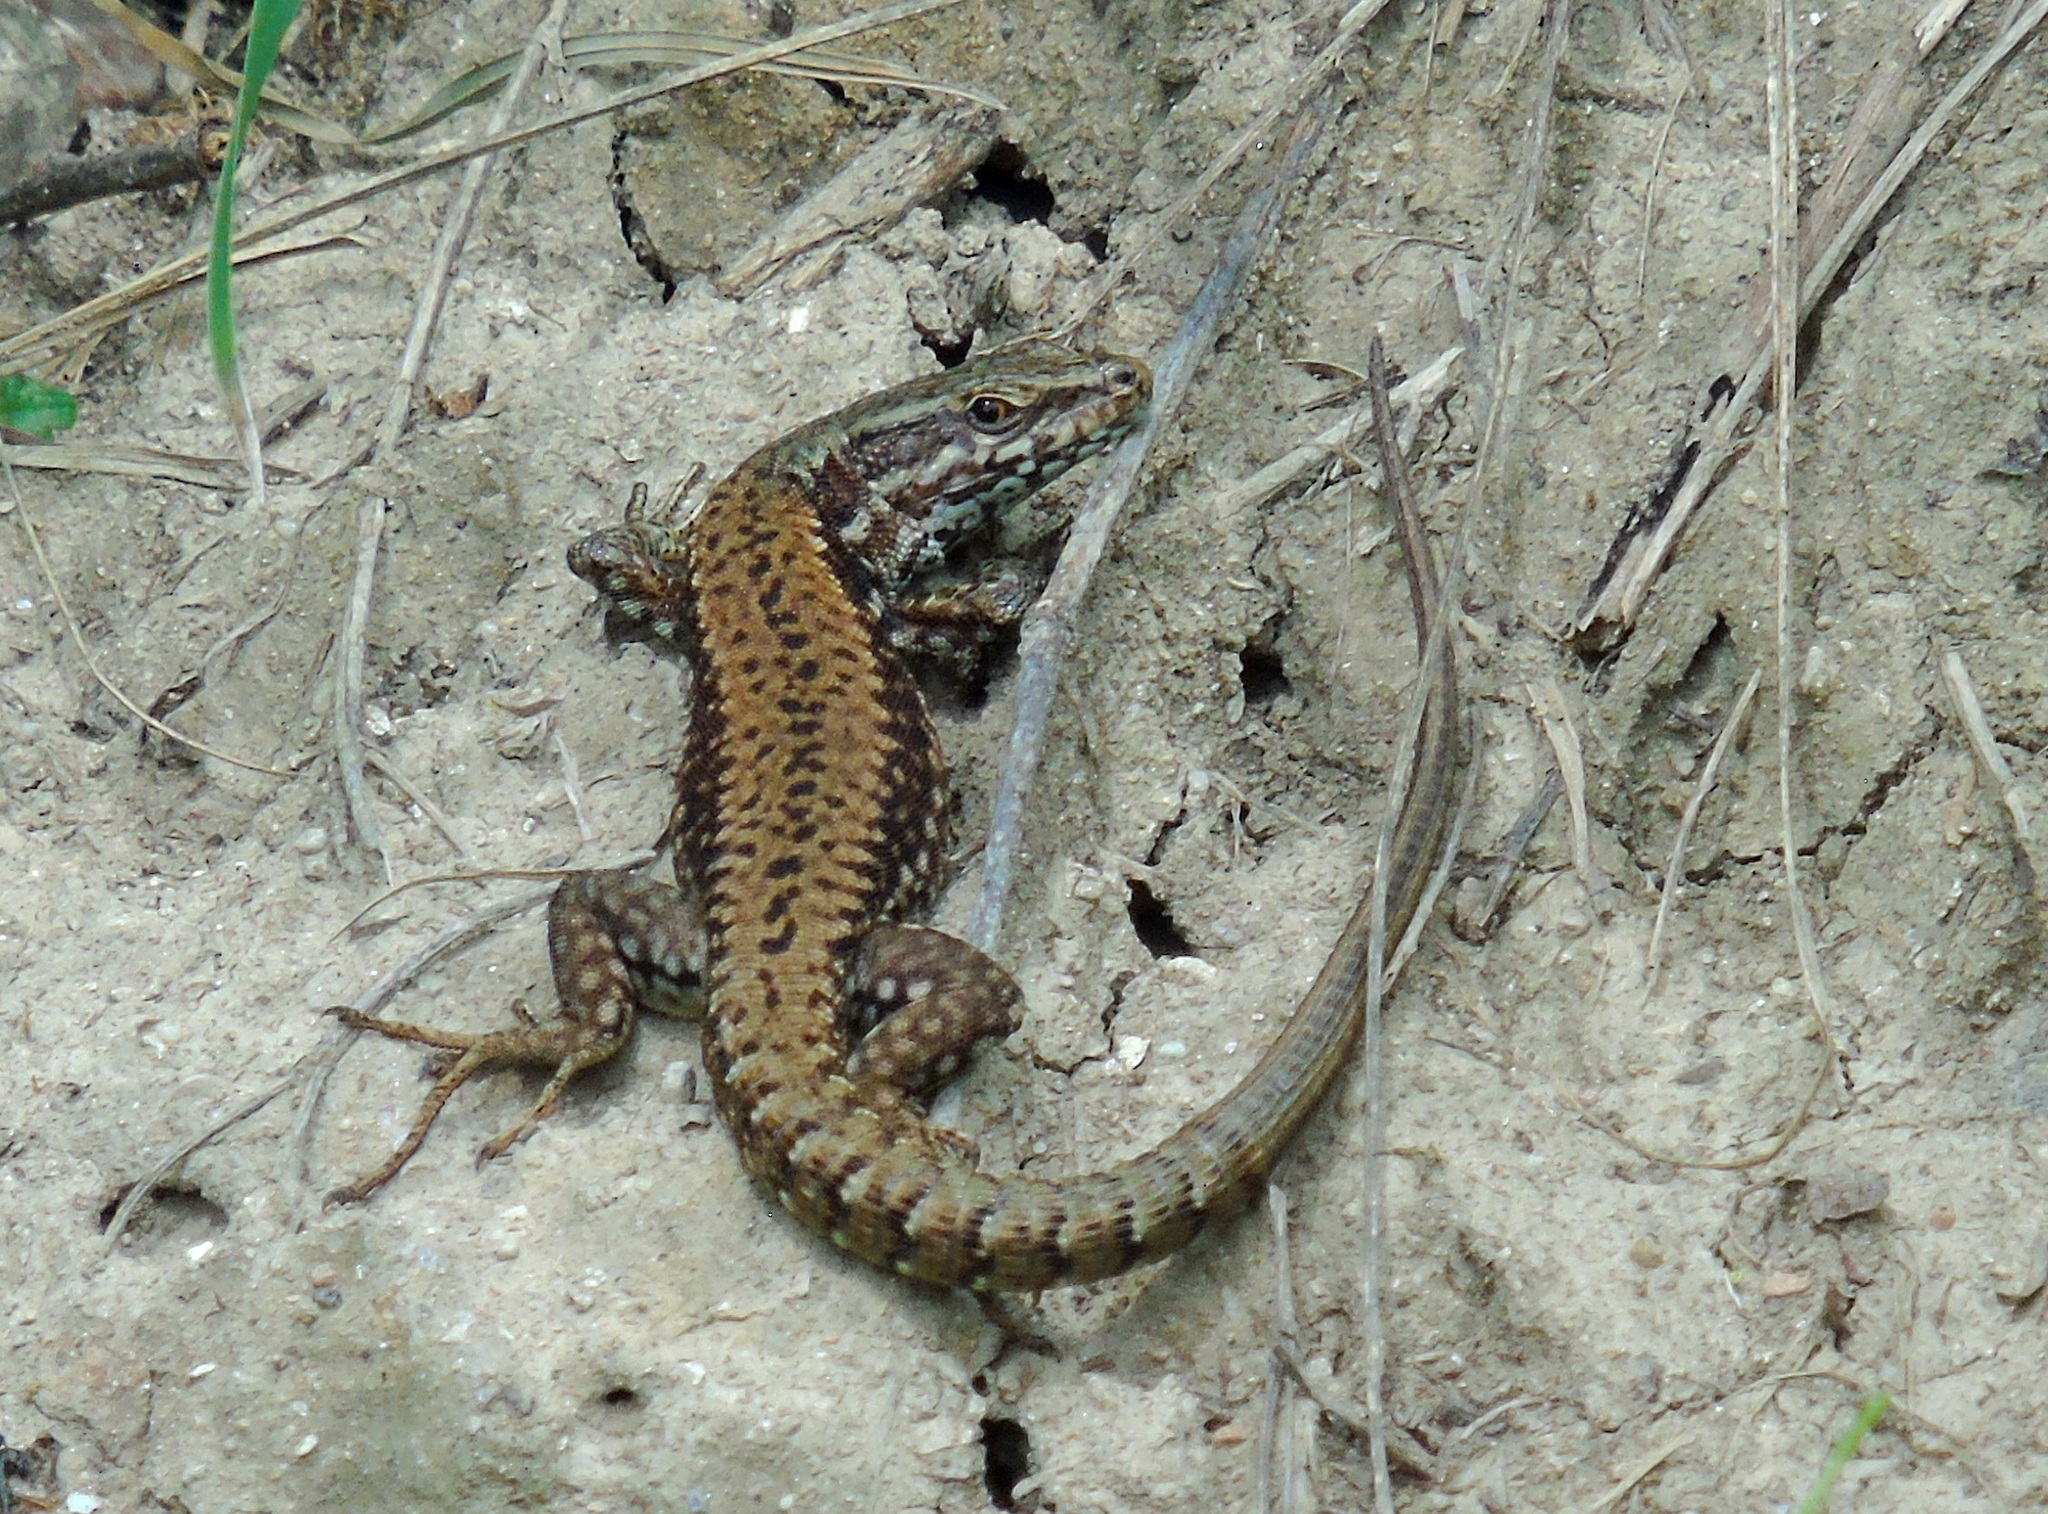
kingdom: Animalia
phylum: Chordata
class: Squamata
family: Lacertidae
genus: Podarcis
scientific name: Podarcis muralis
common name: Common wall lizard
